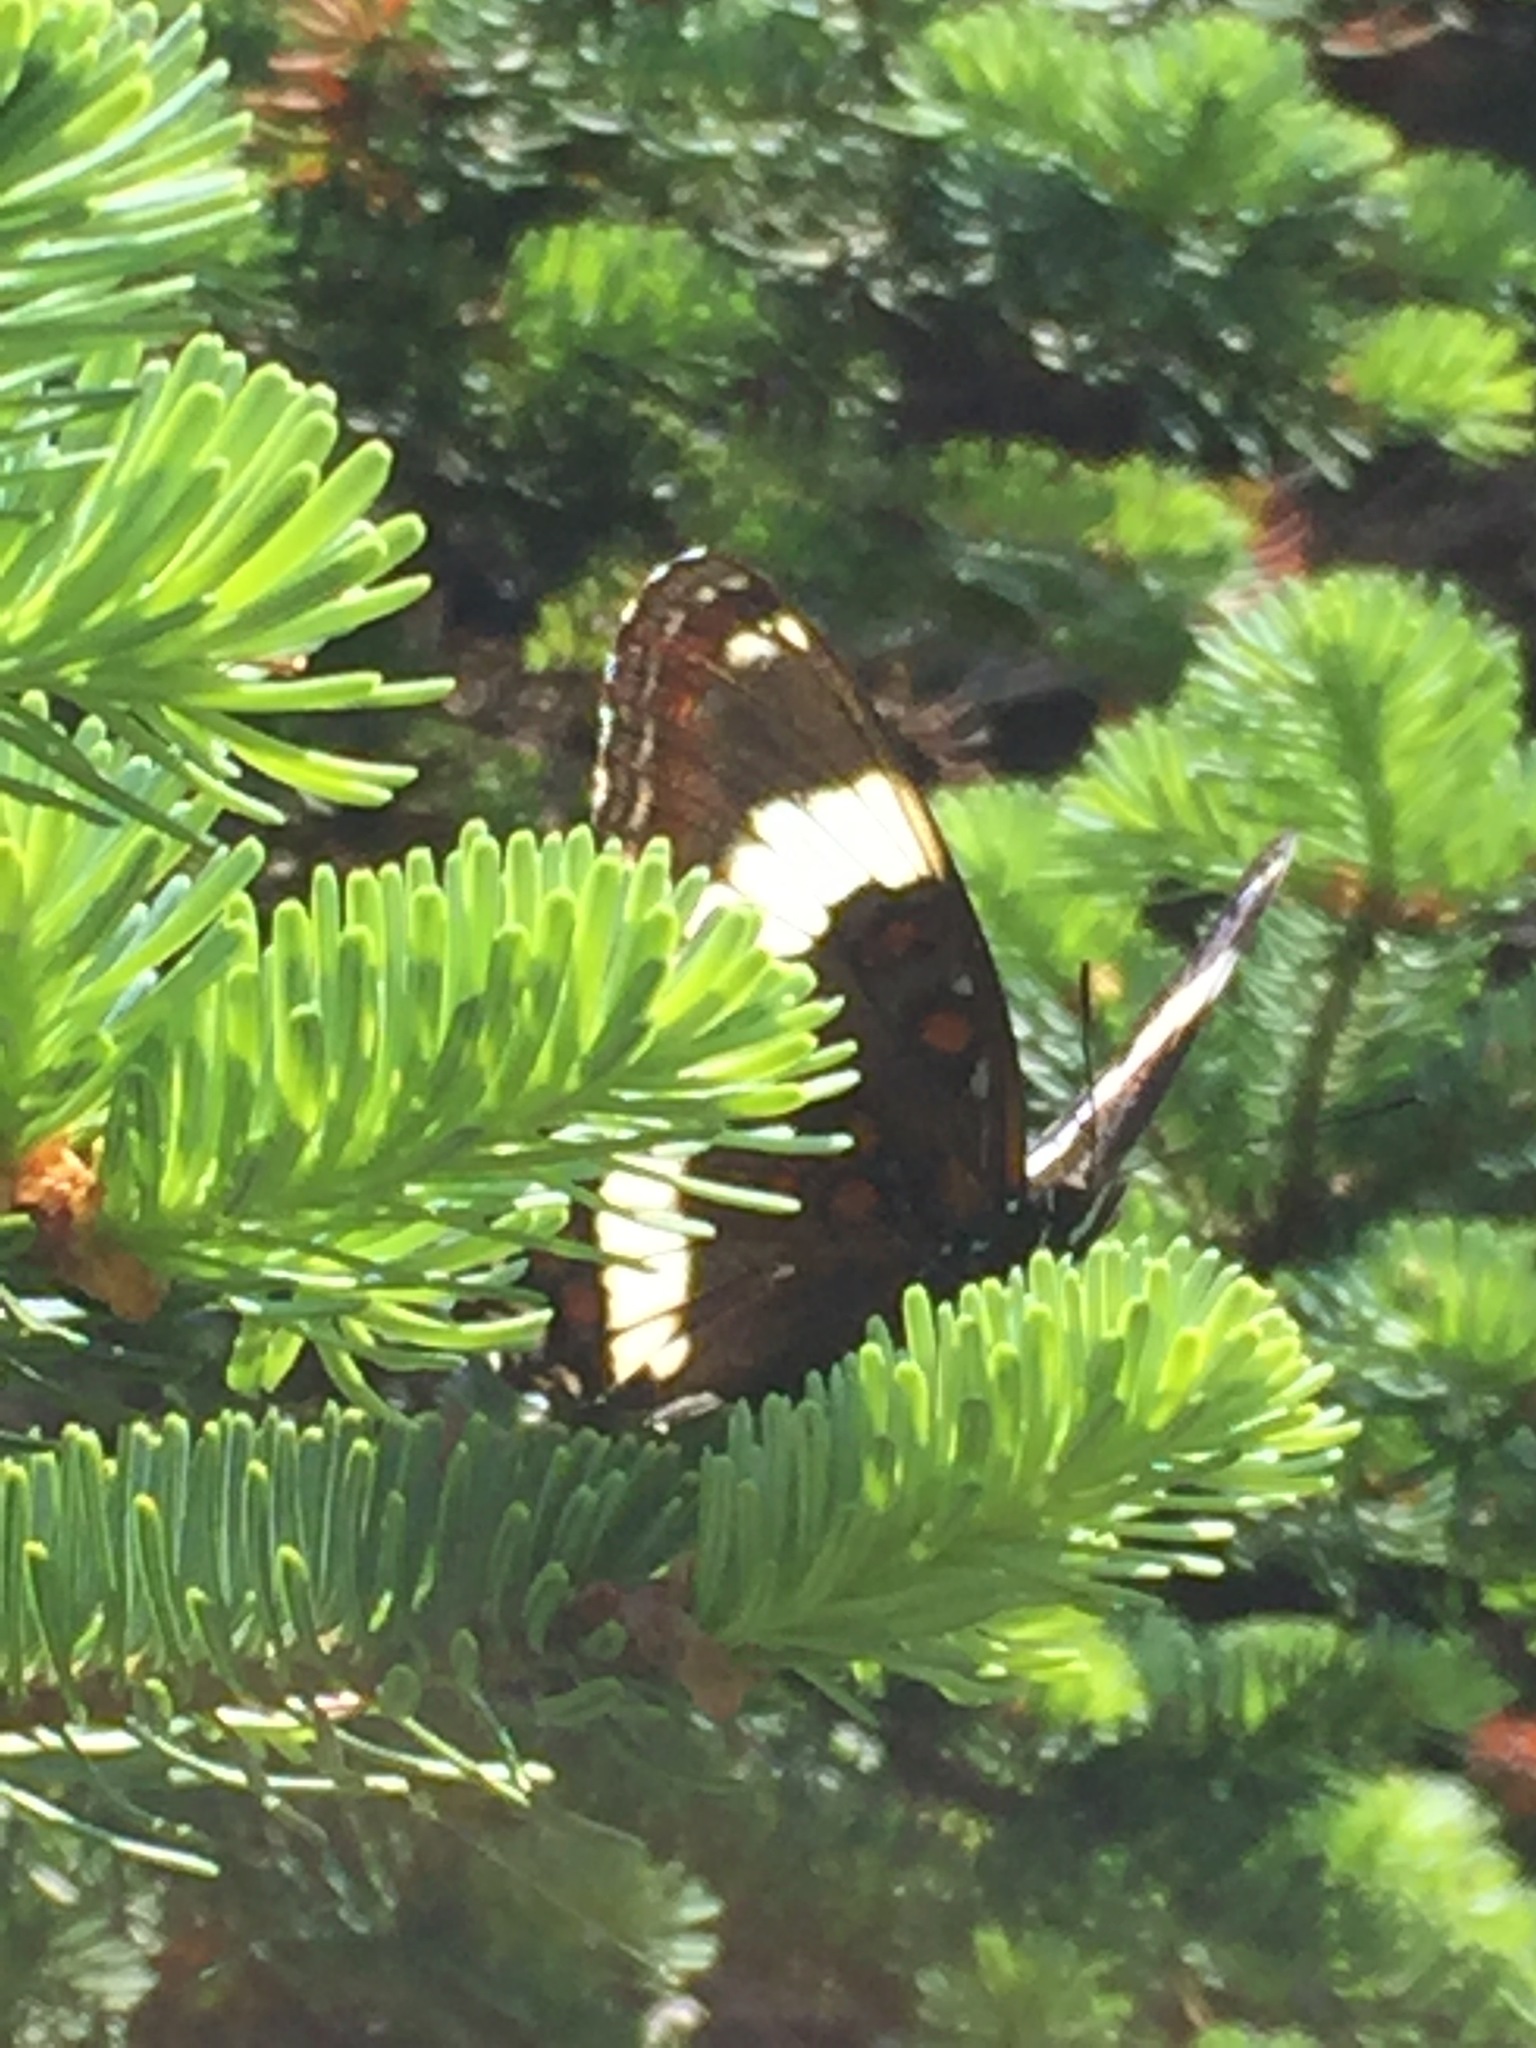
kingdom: Animalia
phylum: Arthropoda
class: Insecta
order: Lepidoptera
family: Nymphalidae
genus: Limenitis
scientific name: Limenitis arthemis
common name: Red-spotted admiral
